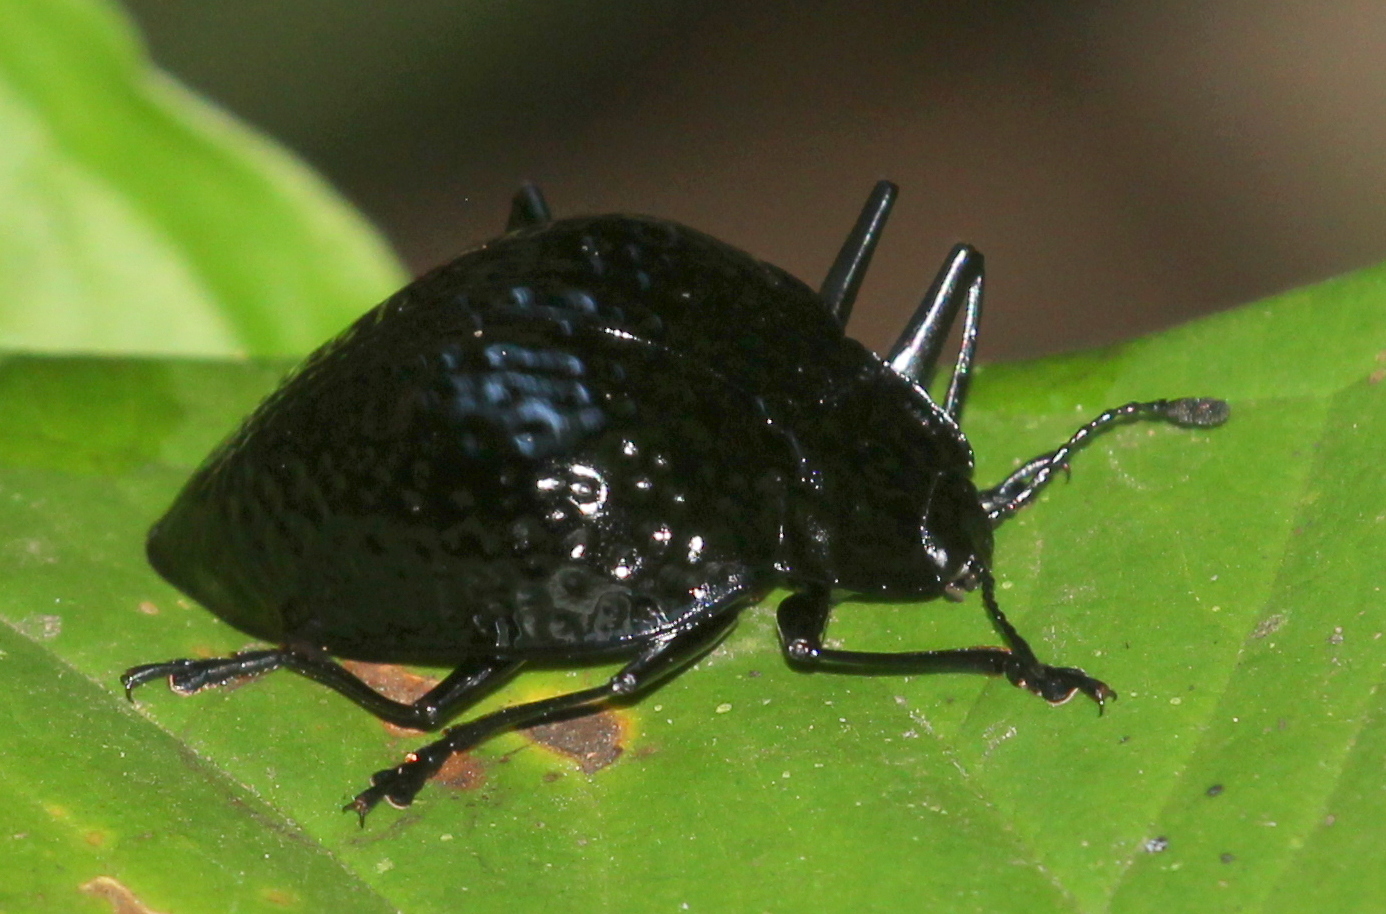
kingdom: Animalia
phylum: Arthropoda
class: Insecta
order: Coleoptera
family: Erotylidae
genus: Erotylus
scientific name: Erotylus
